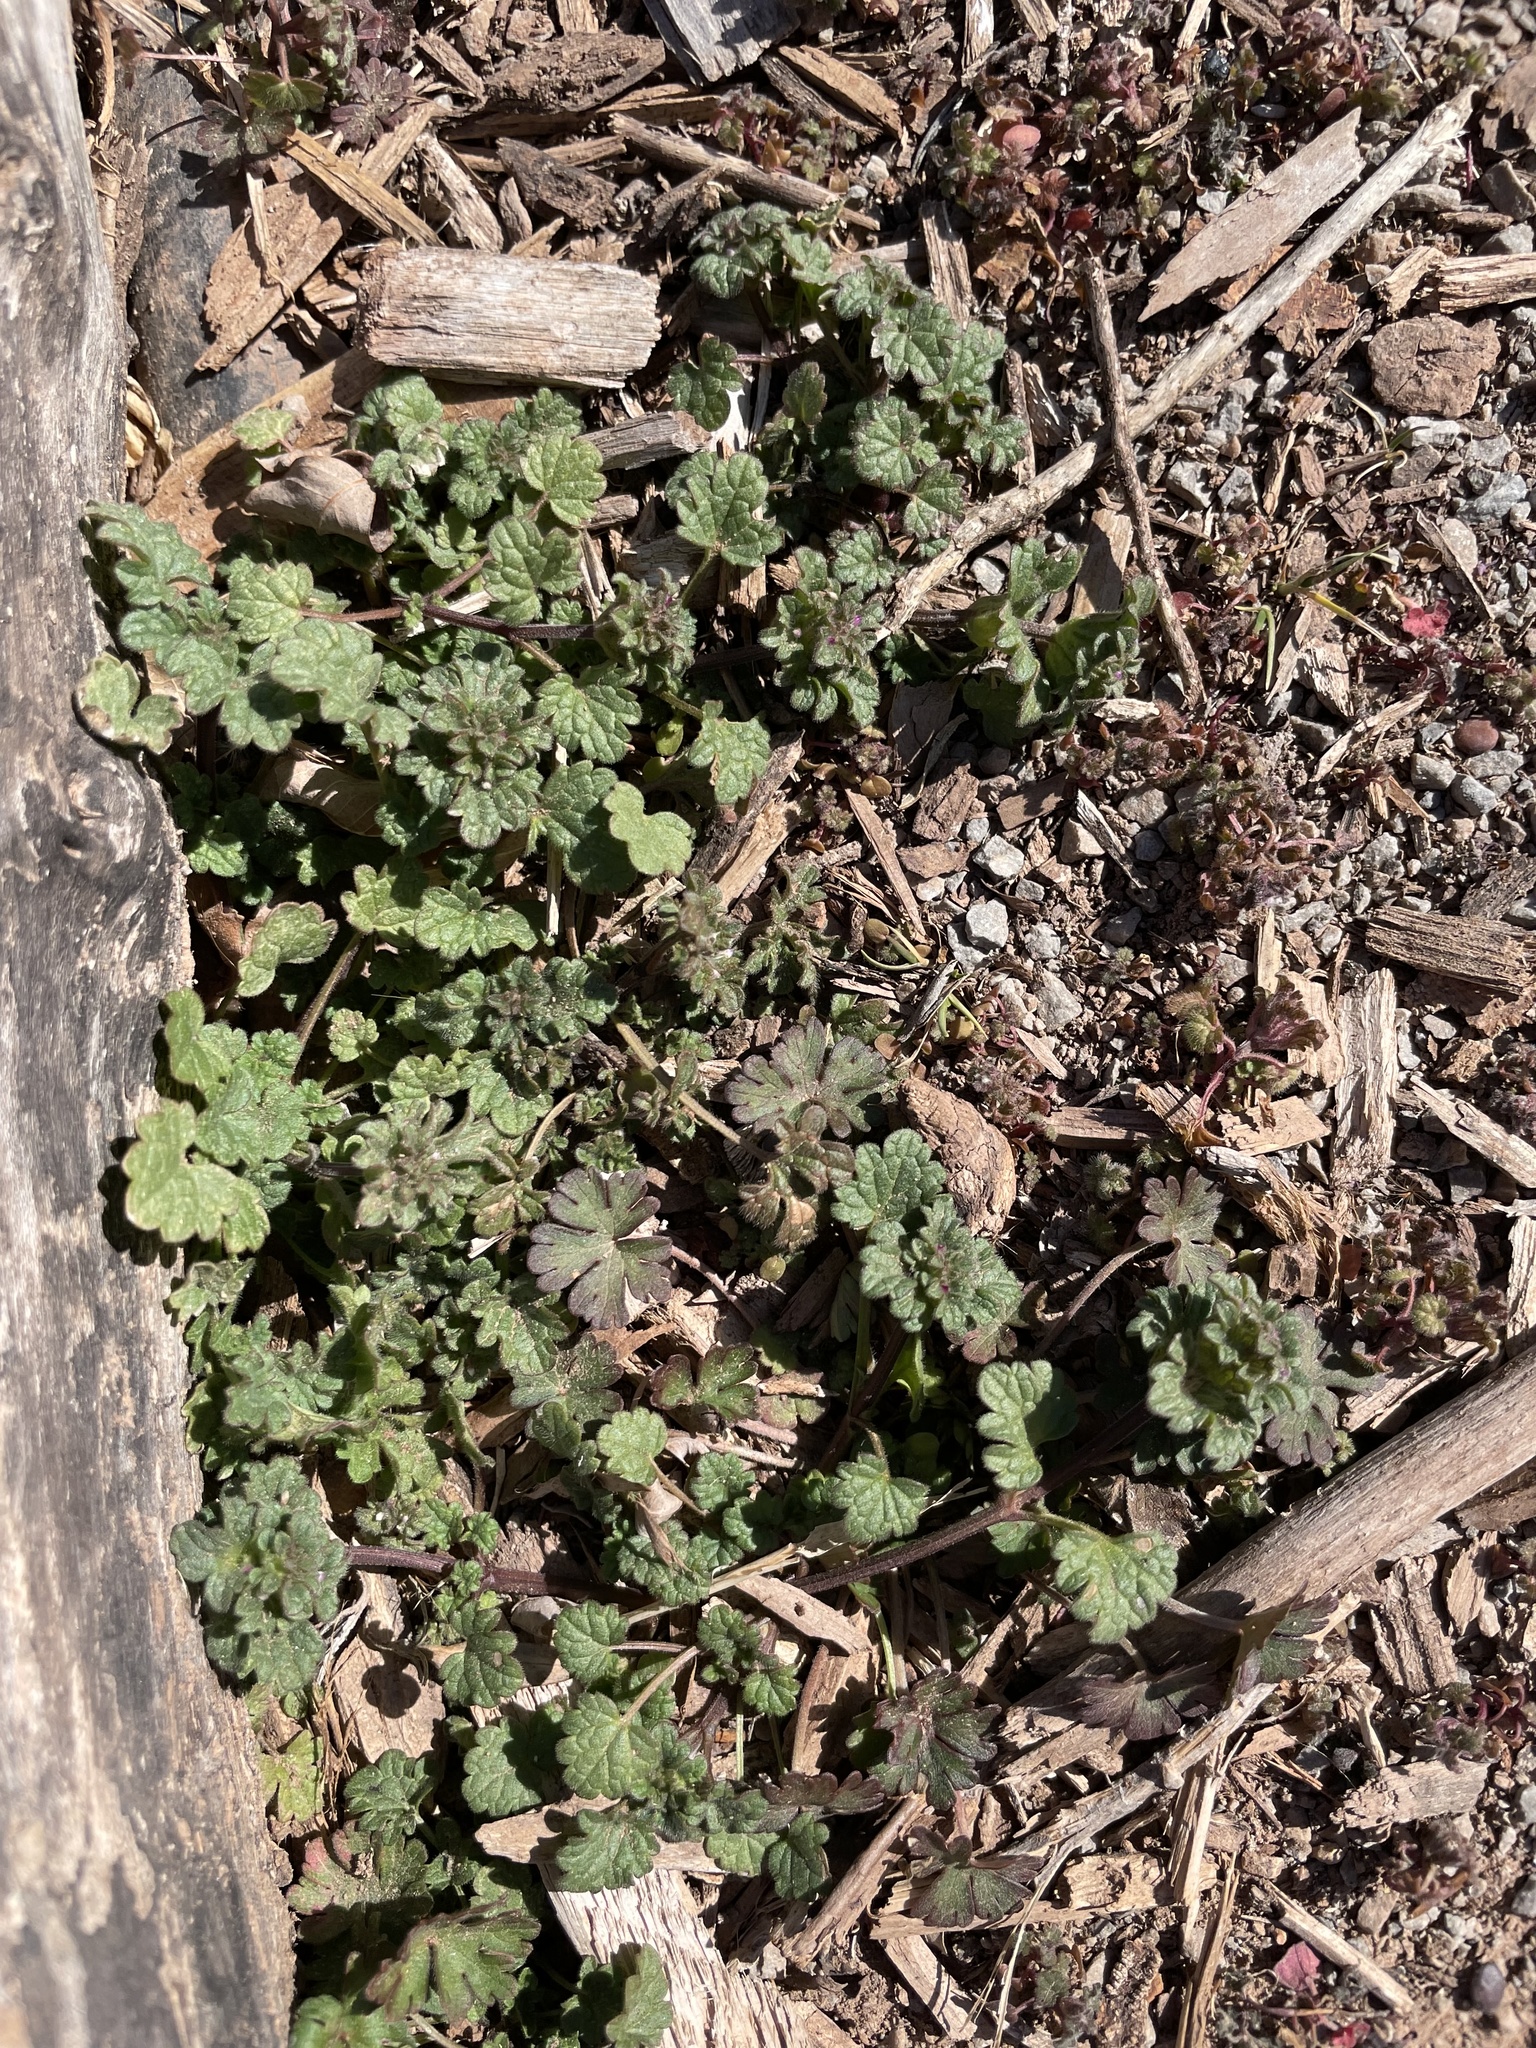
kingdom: Plantae
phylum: Tracheophyta
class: Magnoliopsida
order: Lamiales
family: Lamiaceae
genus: Lamium
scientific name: Lamium amplexicaule
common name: Henbit dead-nettle
